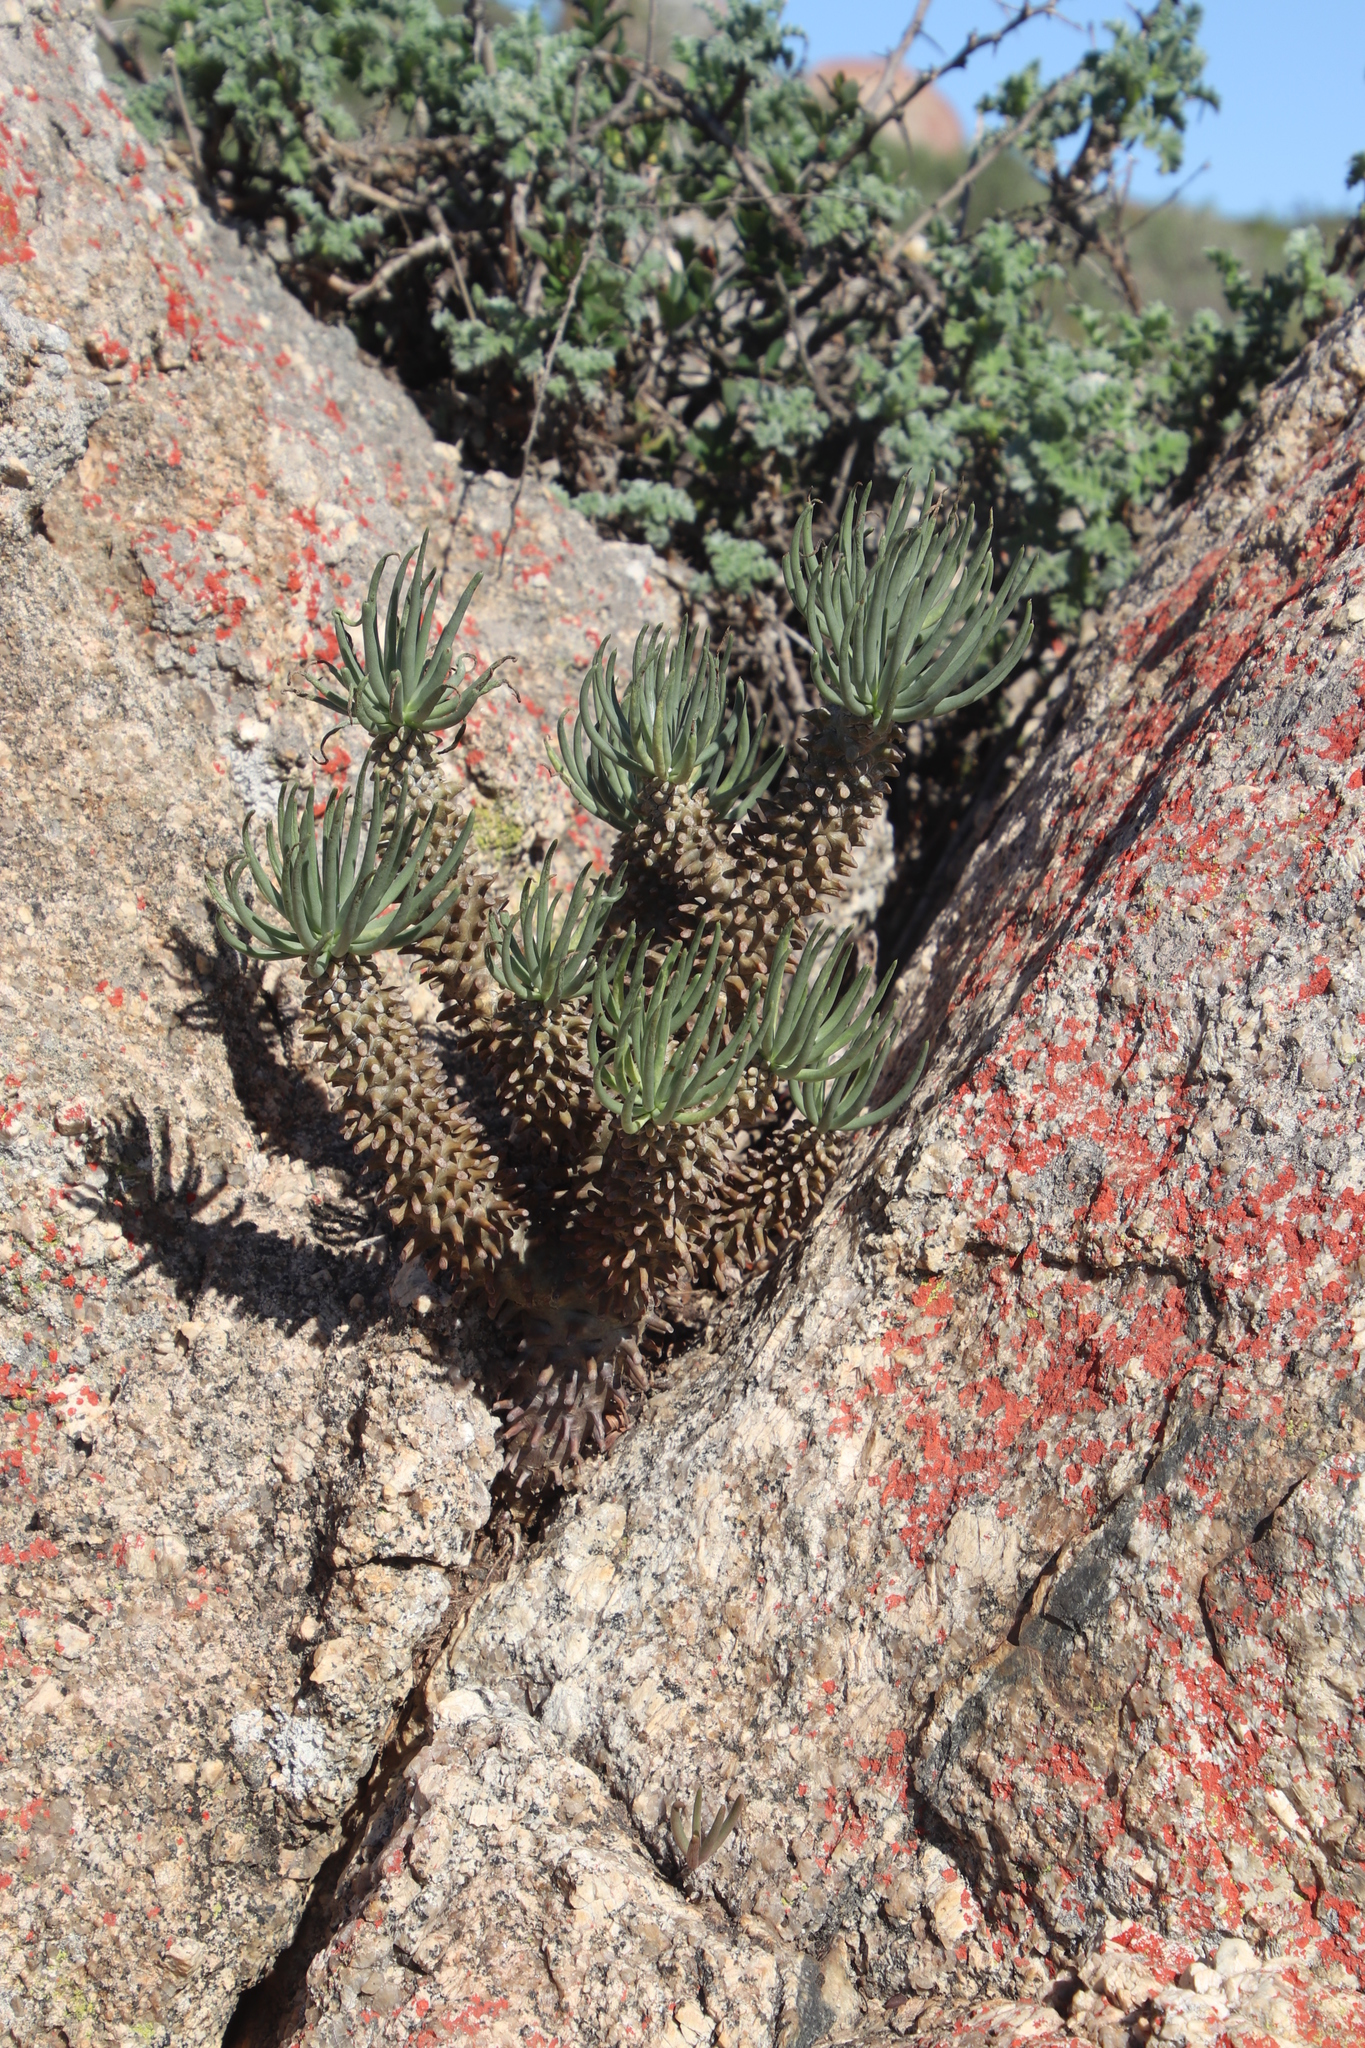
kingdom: Plantae
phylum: Tracheophyta
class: Magnoliopsida
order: Saxifragales
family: Crassulaceae
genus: Tylecodon
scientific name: Tylecodon wallichii
